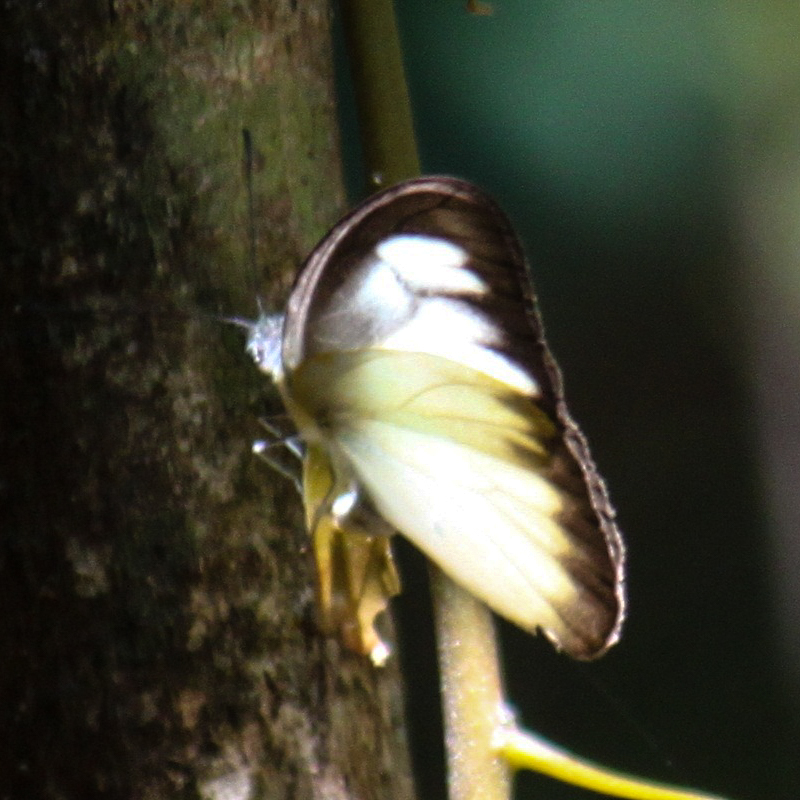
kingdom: Animalia
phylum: Arthropoda
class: Insecta
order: Lepidoptera
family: Pieridae
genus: Appias
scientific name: Appias lyncida
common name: Chocolate albatross
